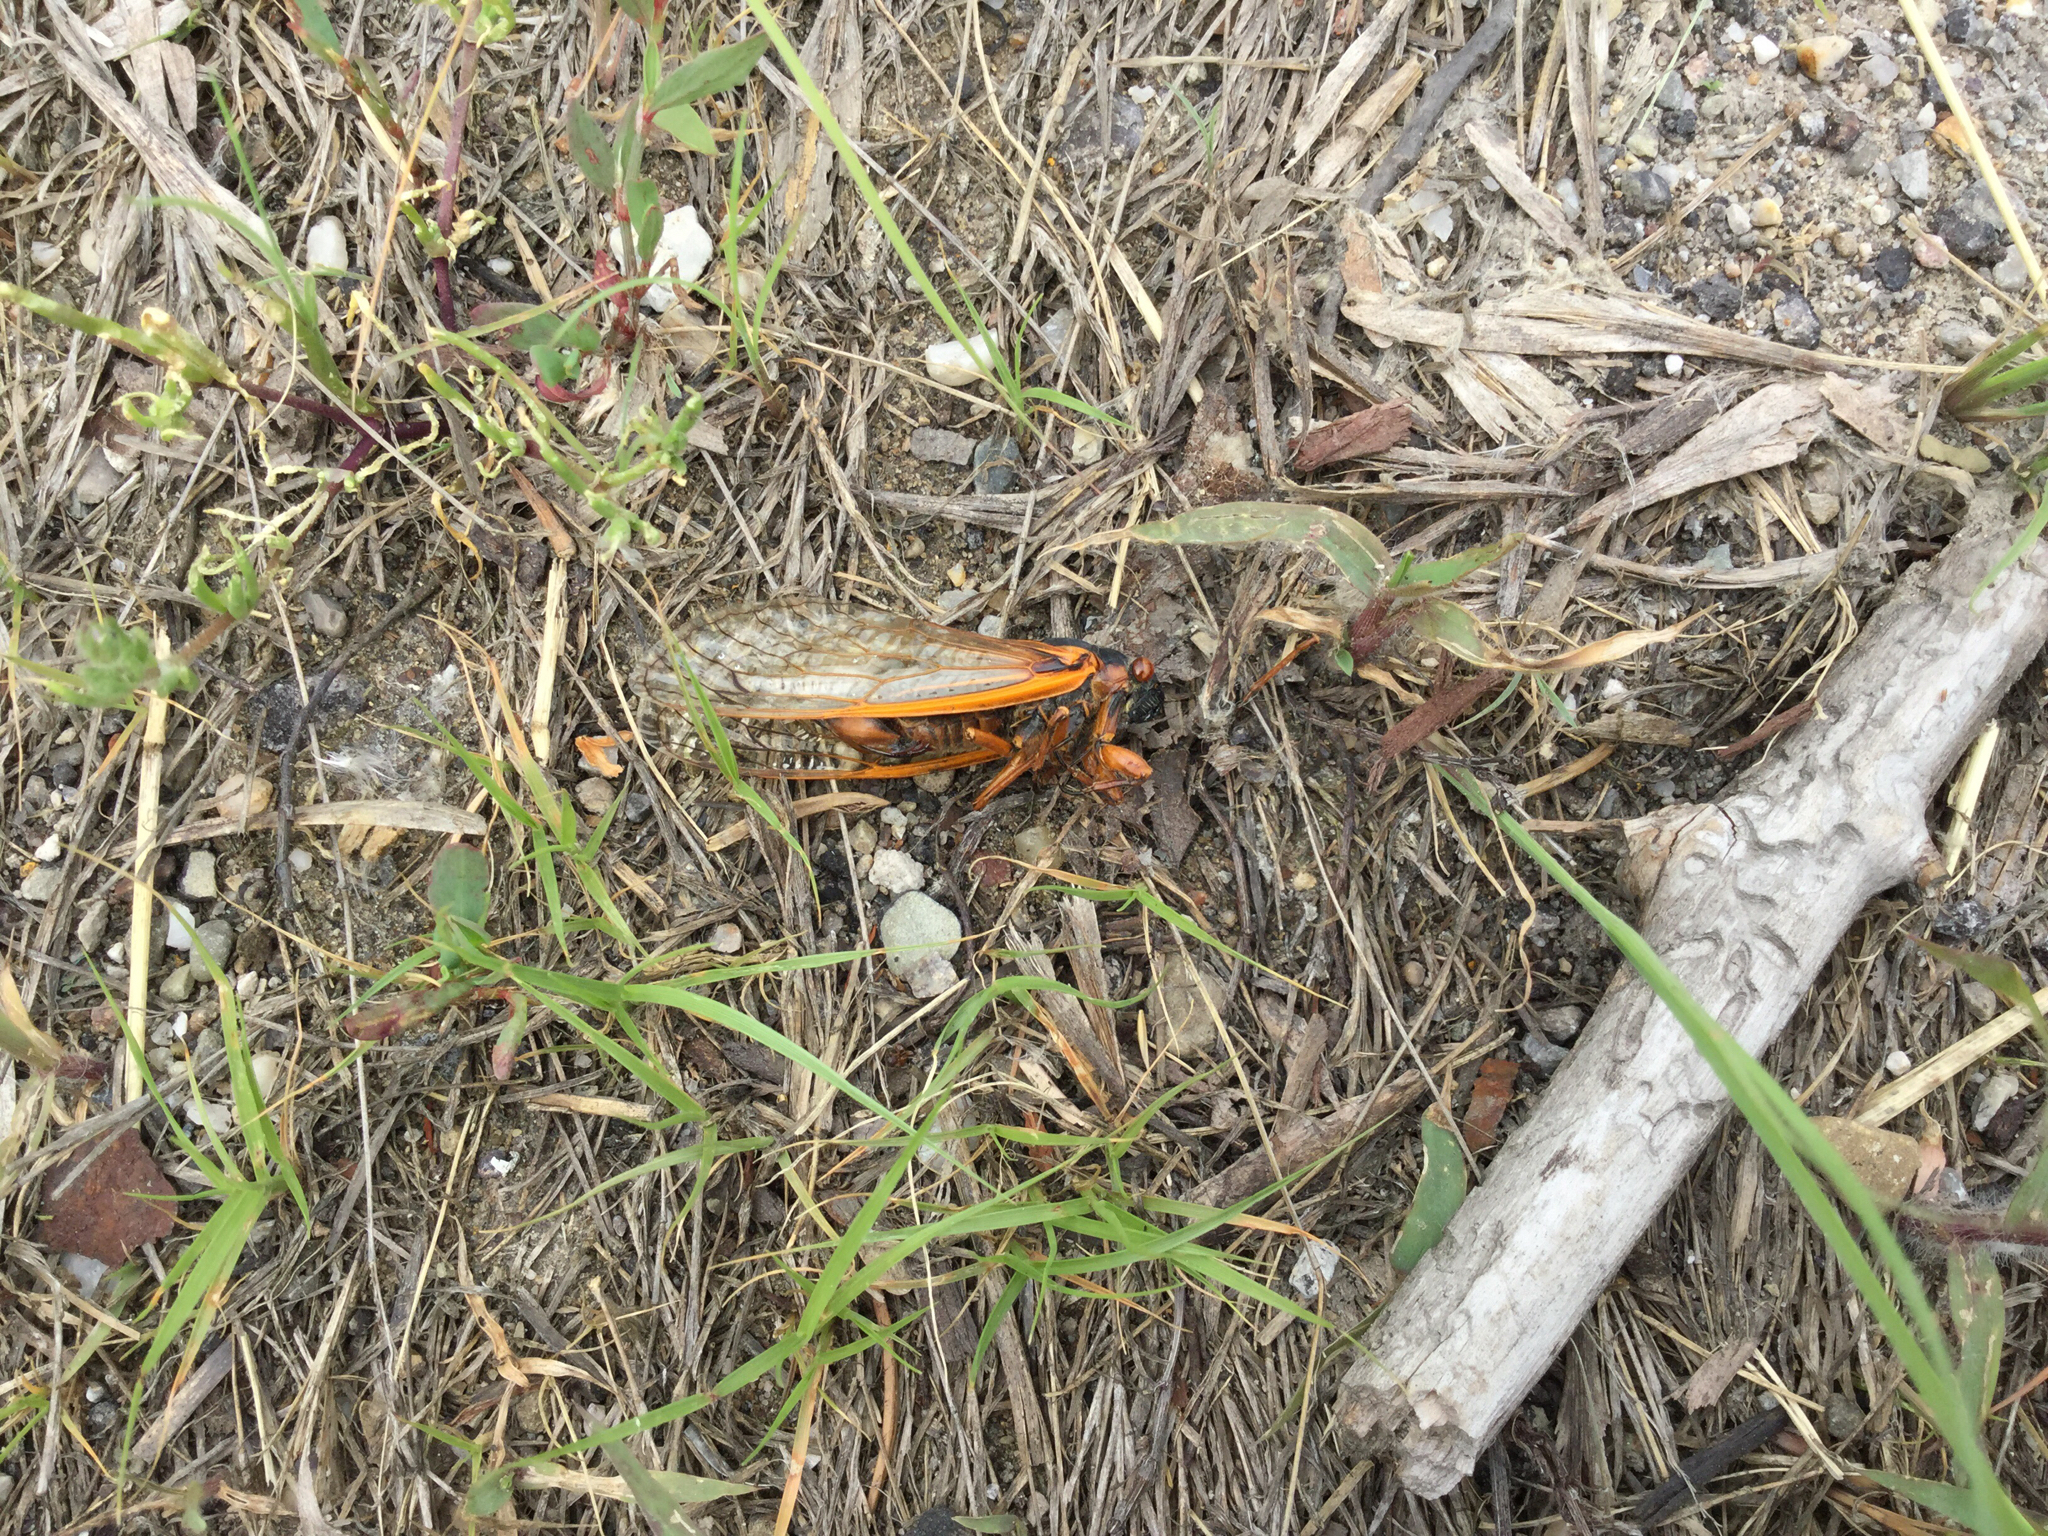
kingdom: Animalia
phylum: Arthropoda
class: Insecta
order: Hemiptera
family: Cicadidae
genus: Magicicada
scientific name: Magicicada septendecim
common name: Periodical cicada
